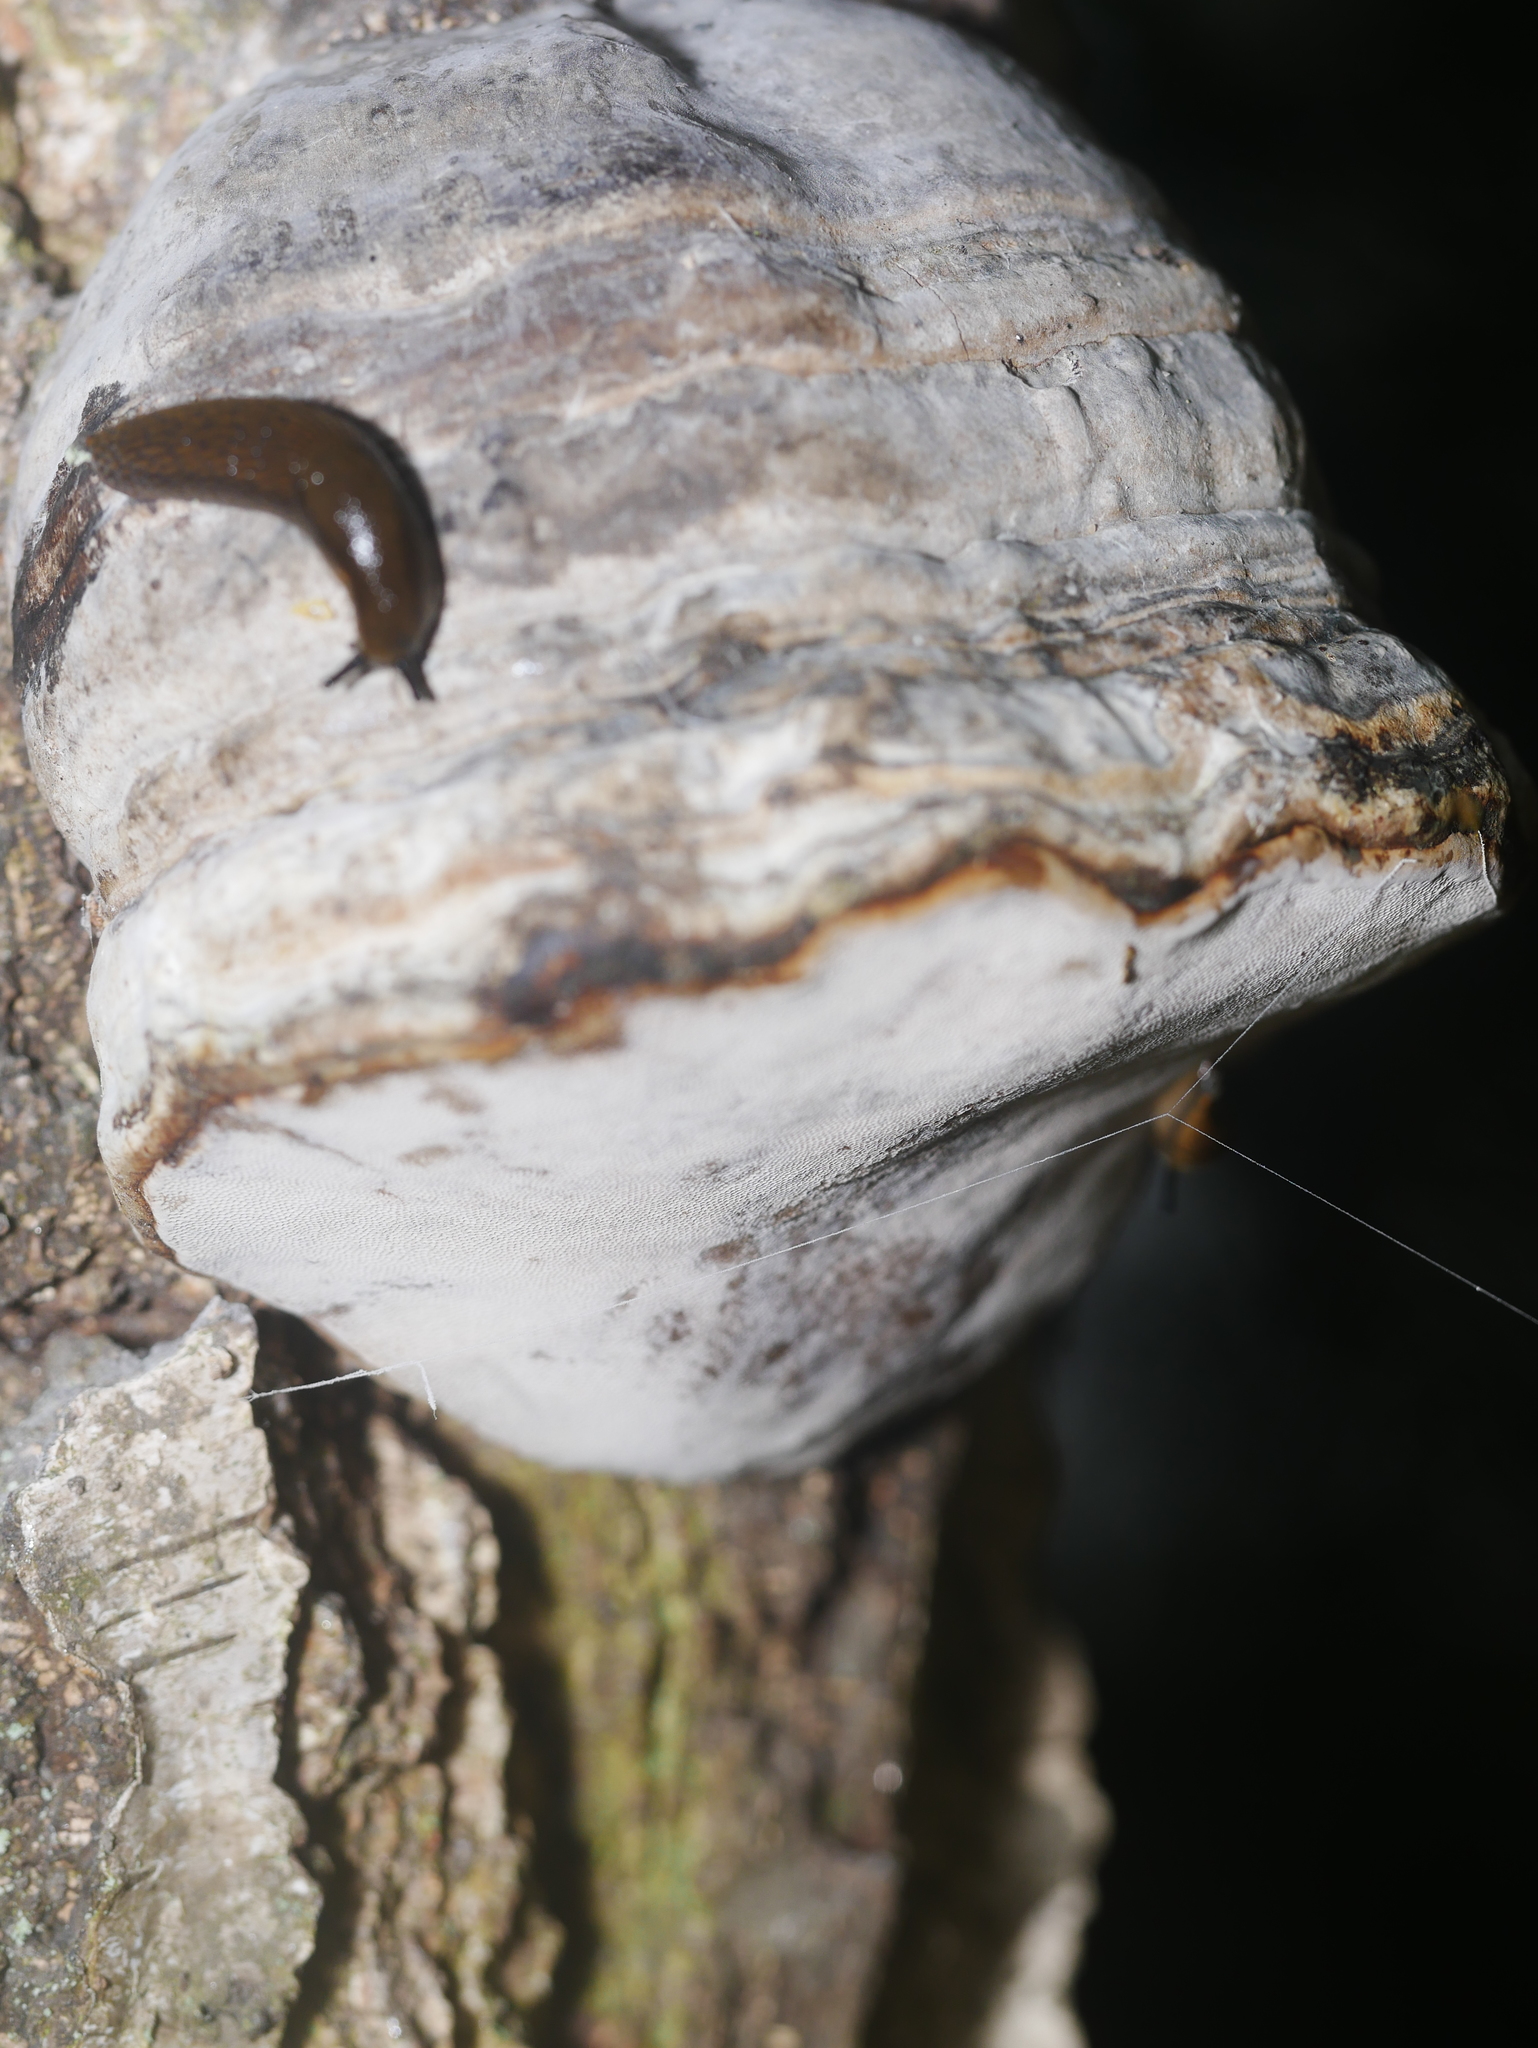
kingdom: Fungi
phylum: Basidiomycota
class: Agaricomycetes
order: Polyporales
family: Polyporaceae
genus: Fomes
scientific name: Fomes fomentarius
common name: Hoof fungus
